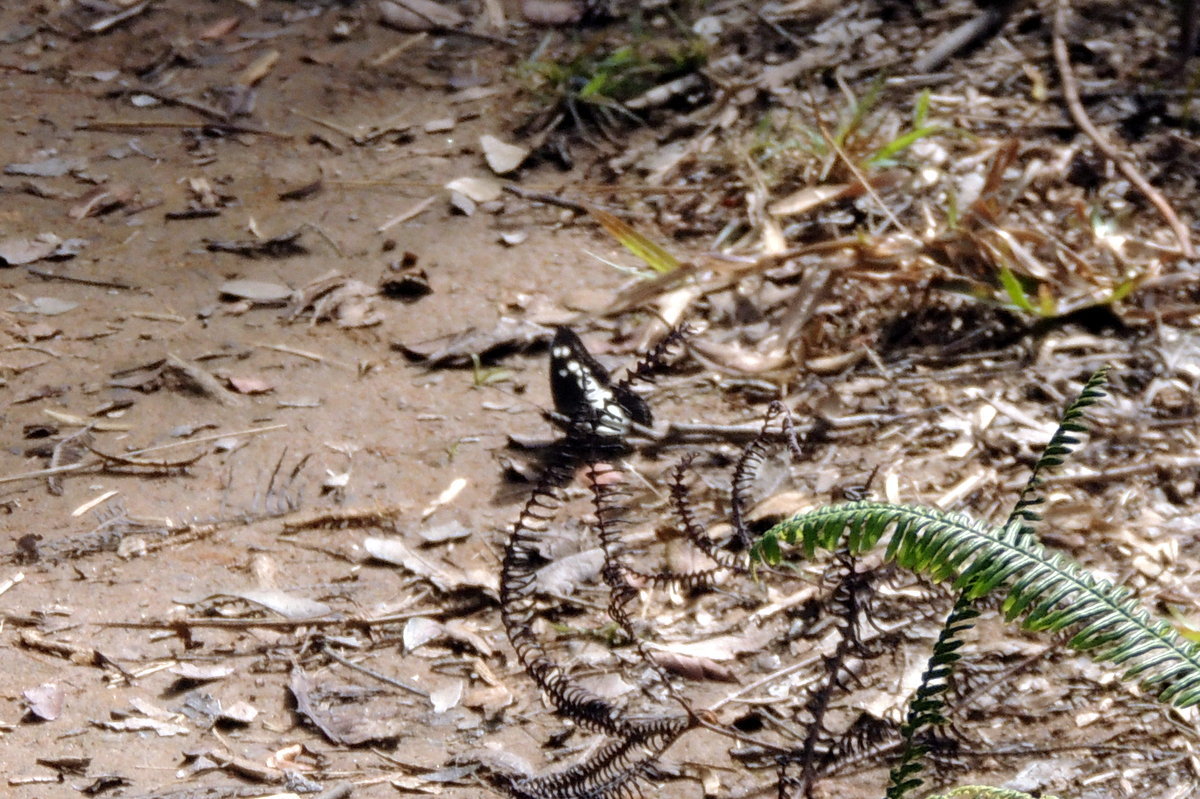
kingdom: Animalia
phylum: Arthropoda
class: Insecta
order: Lepidoptera
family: Nymphalidae
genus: Chloropoea
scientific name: Chloropoea lucretia
